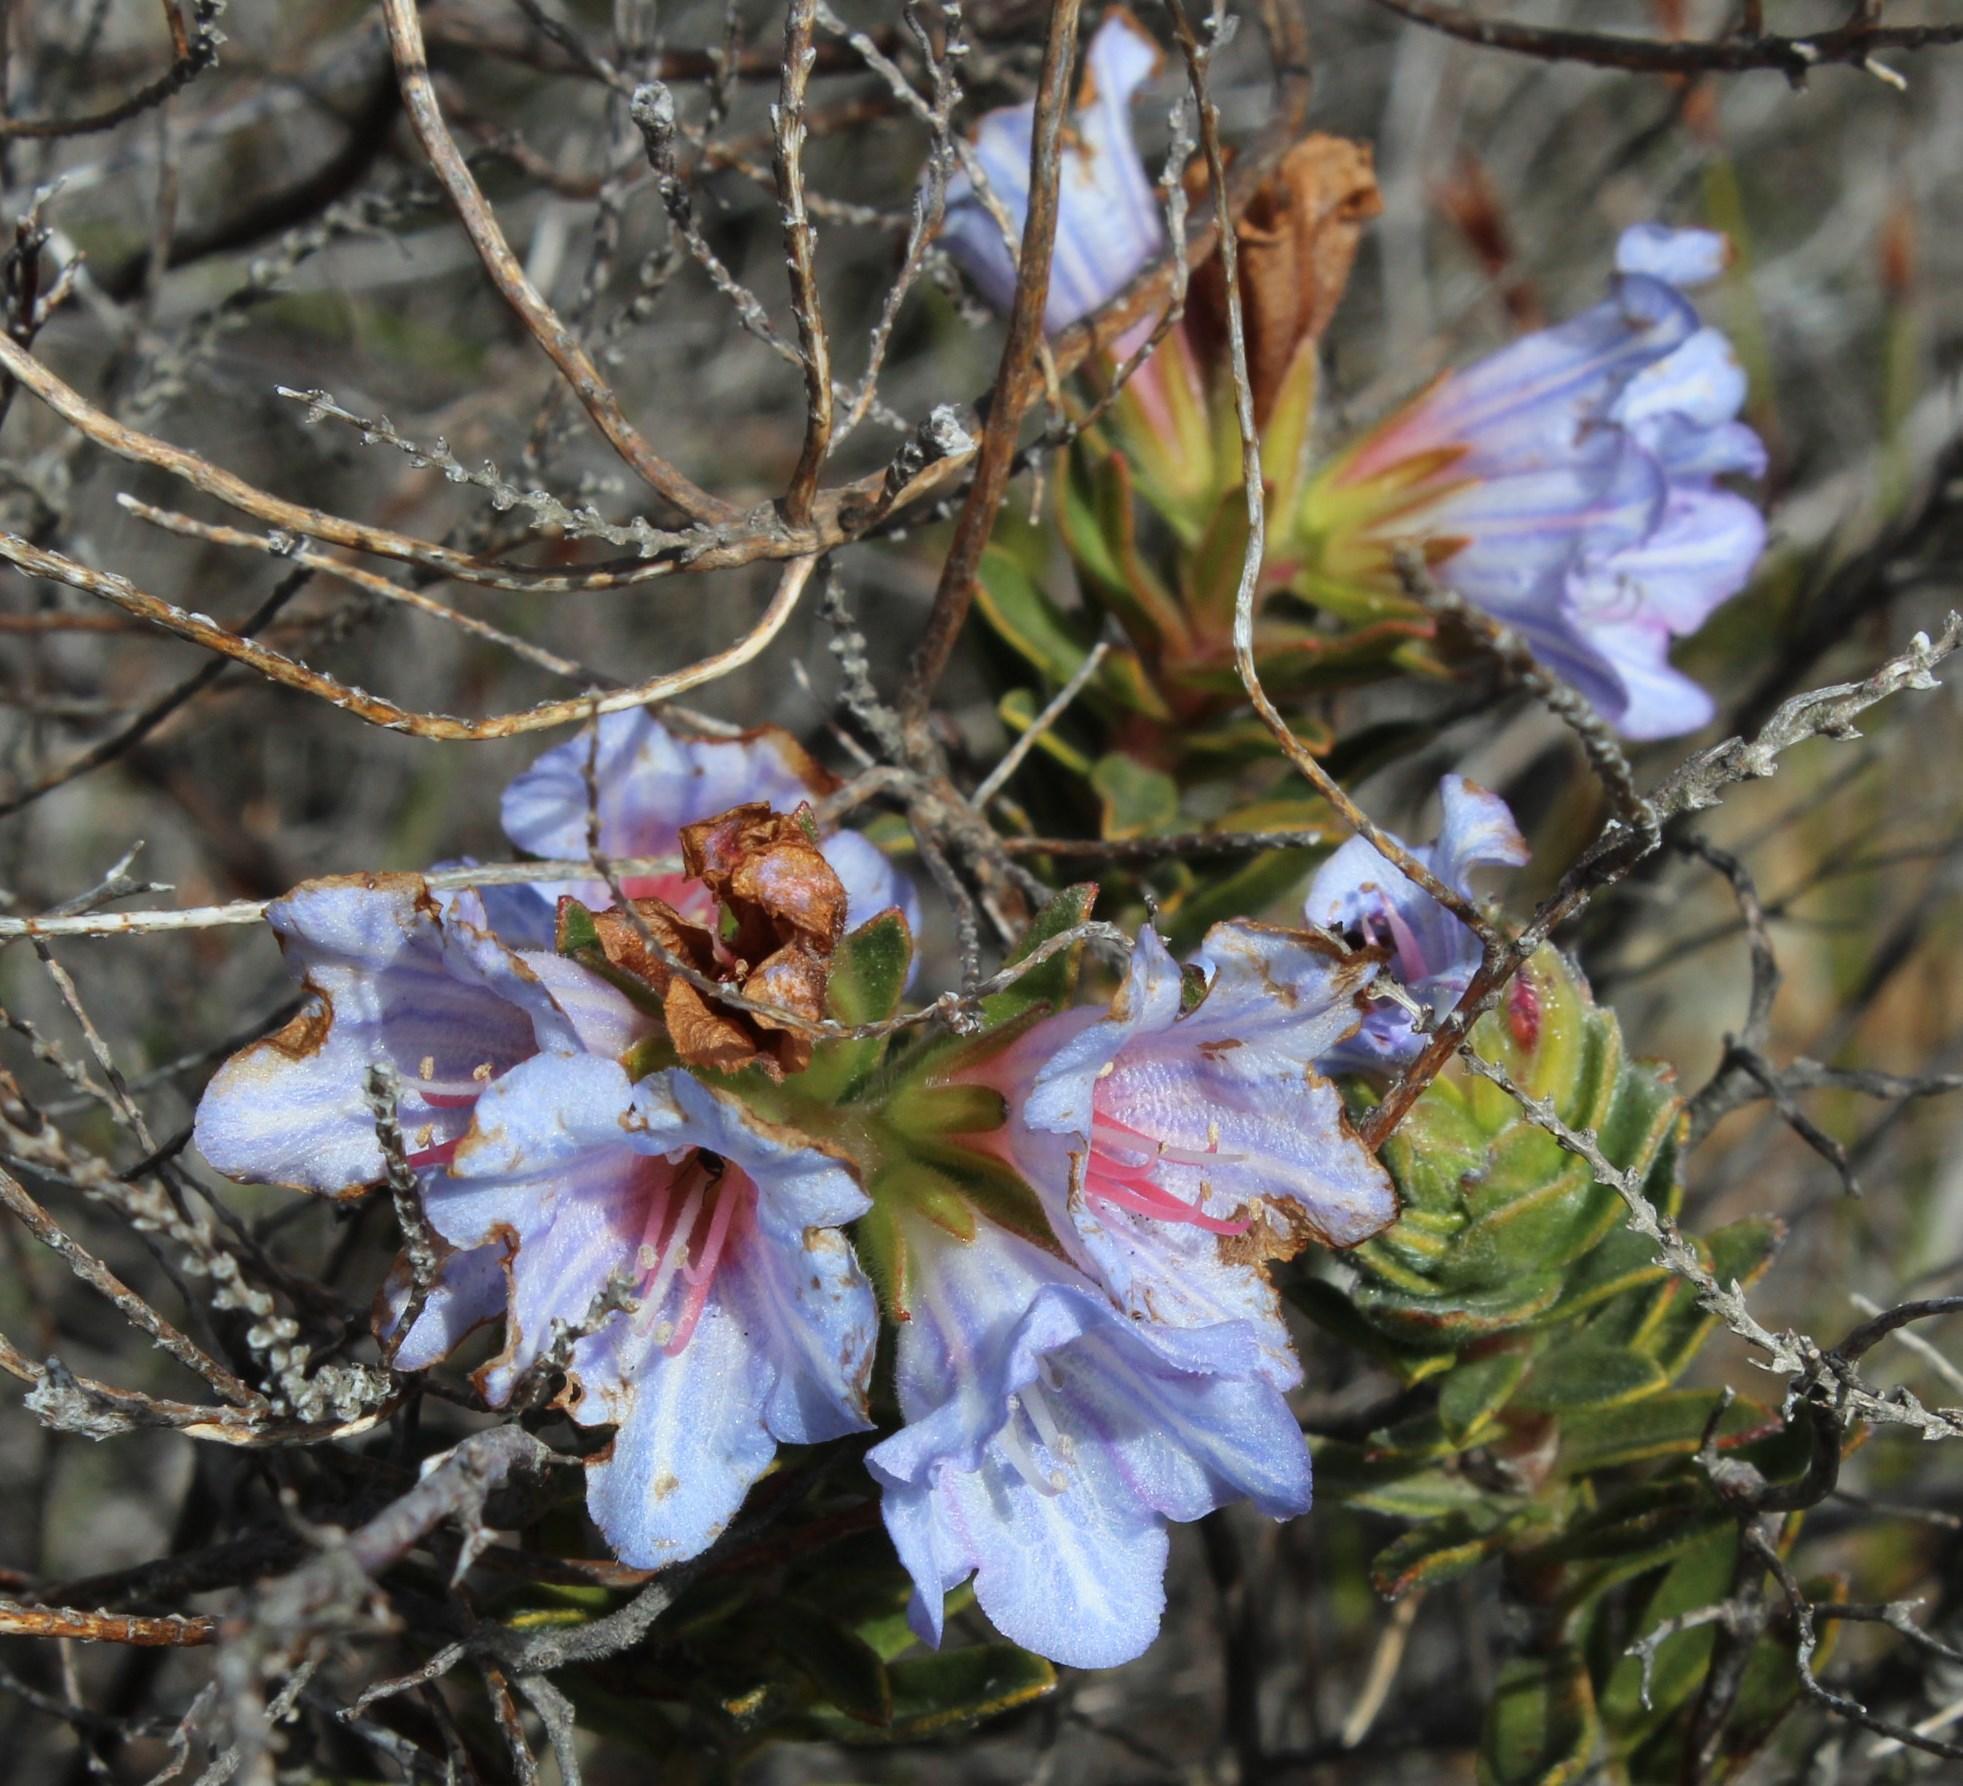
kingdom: Plantae
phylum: Tracheophyta
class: Magnoliopsida
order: Boraginales
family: Boraginaceae
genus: Lobostemon
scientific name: Lobostemon fruticosus
